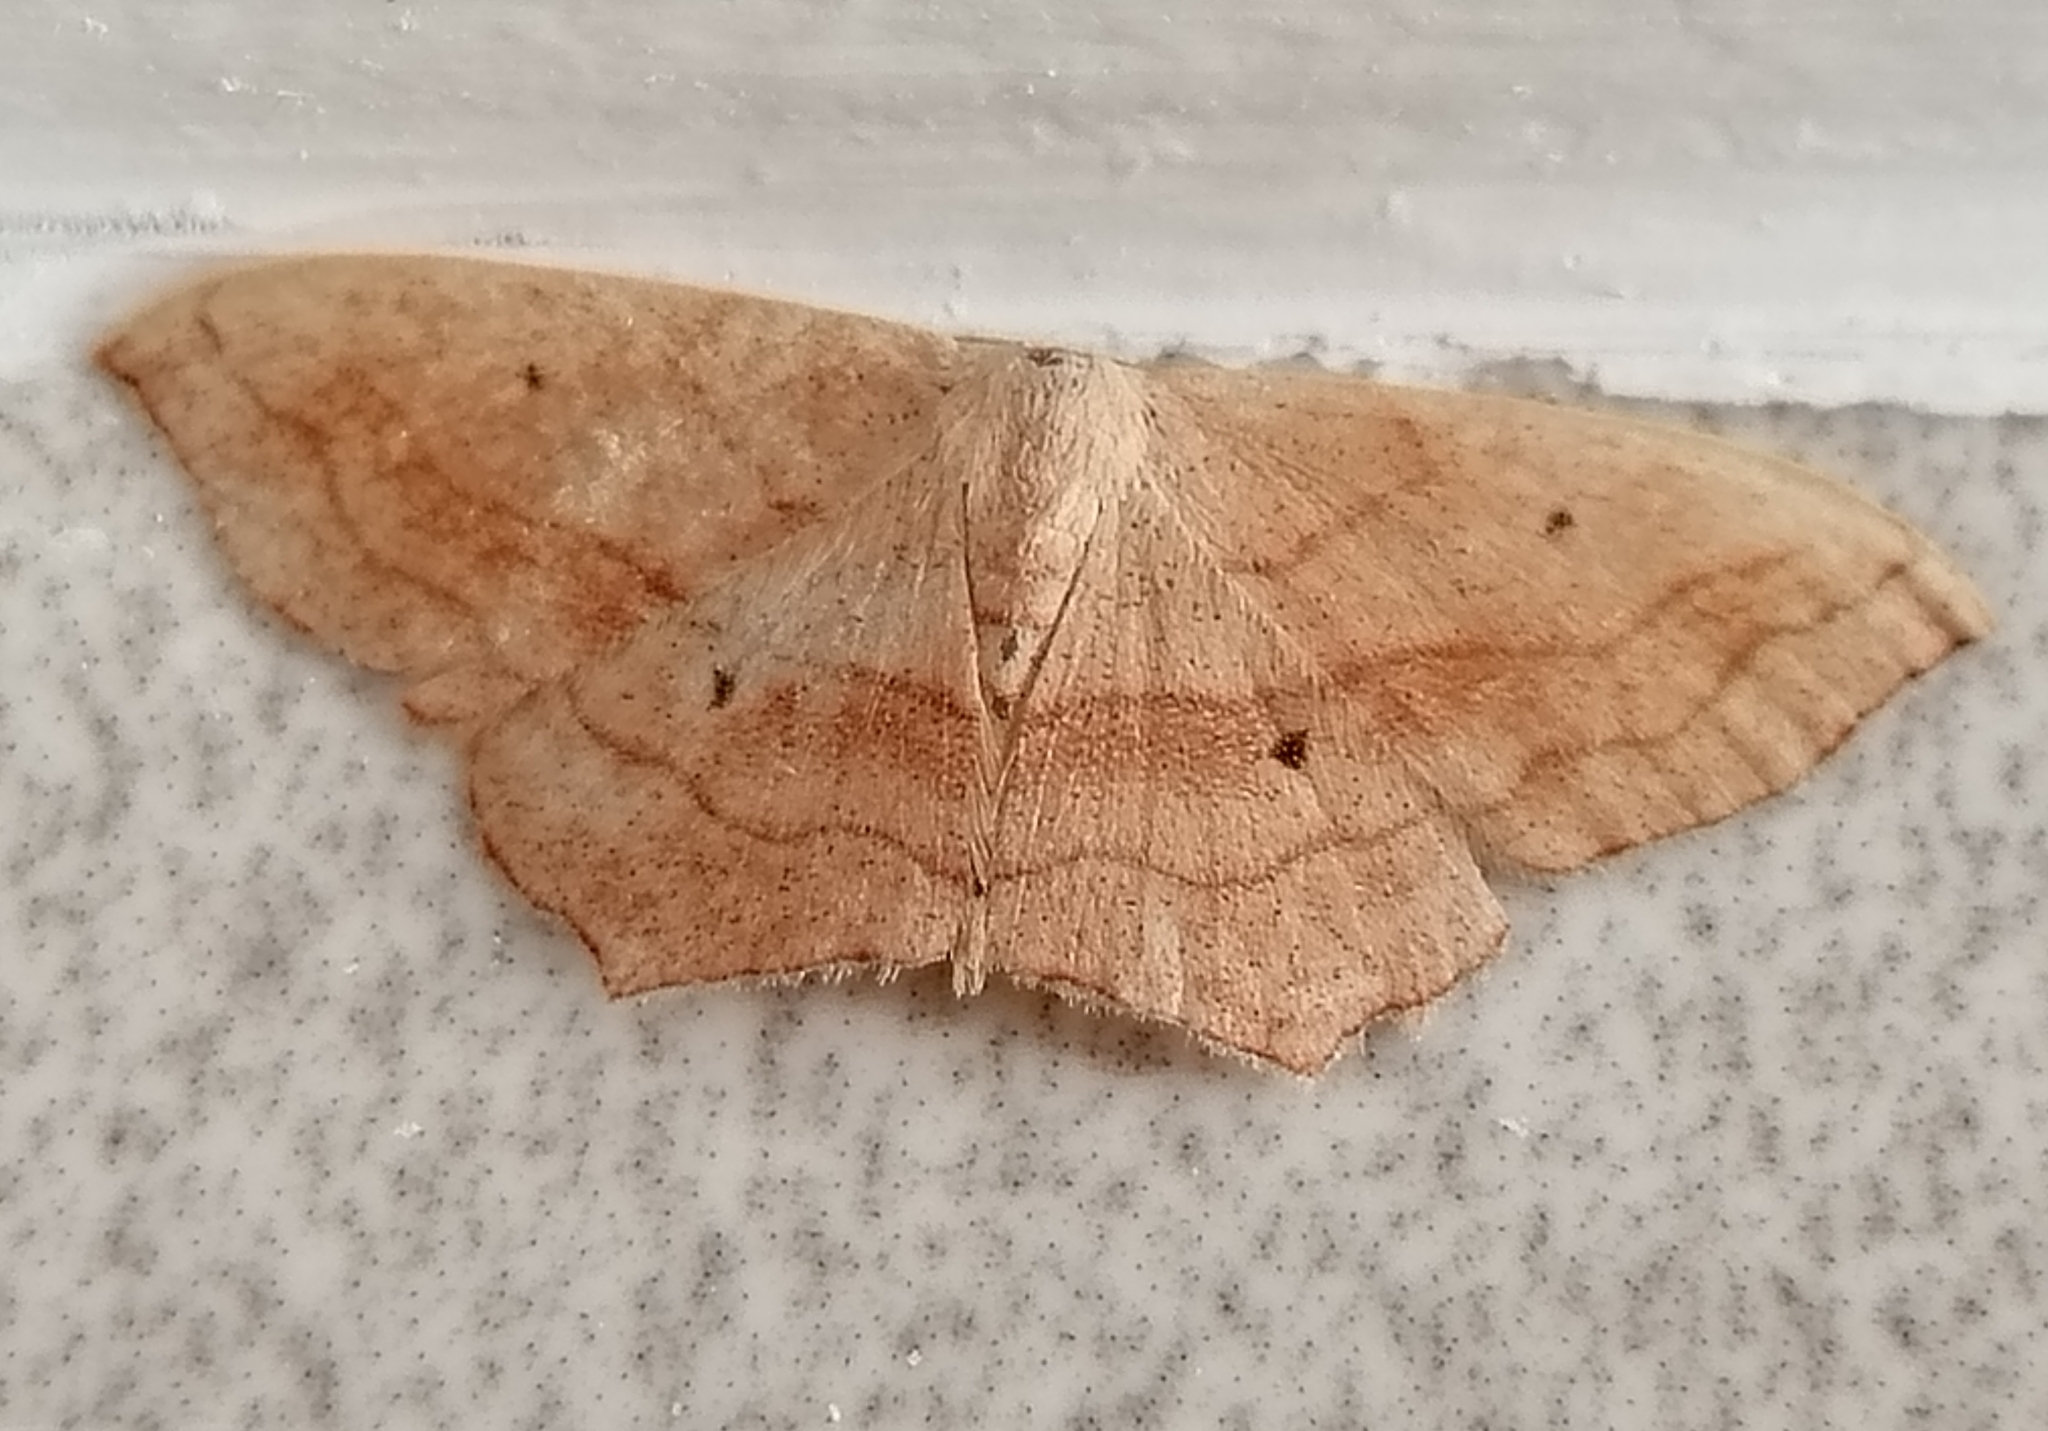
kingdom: Animalia
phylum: Arthropoda
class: Insecta
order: Lepidoptera
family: Geometridae
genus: Scopula
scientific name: Scopula imitaria
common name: Small blood-vein
